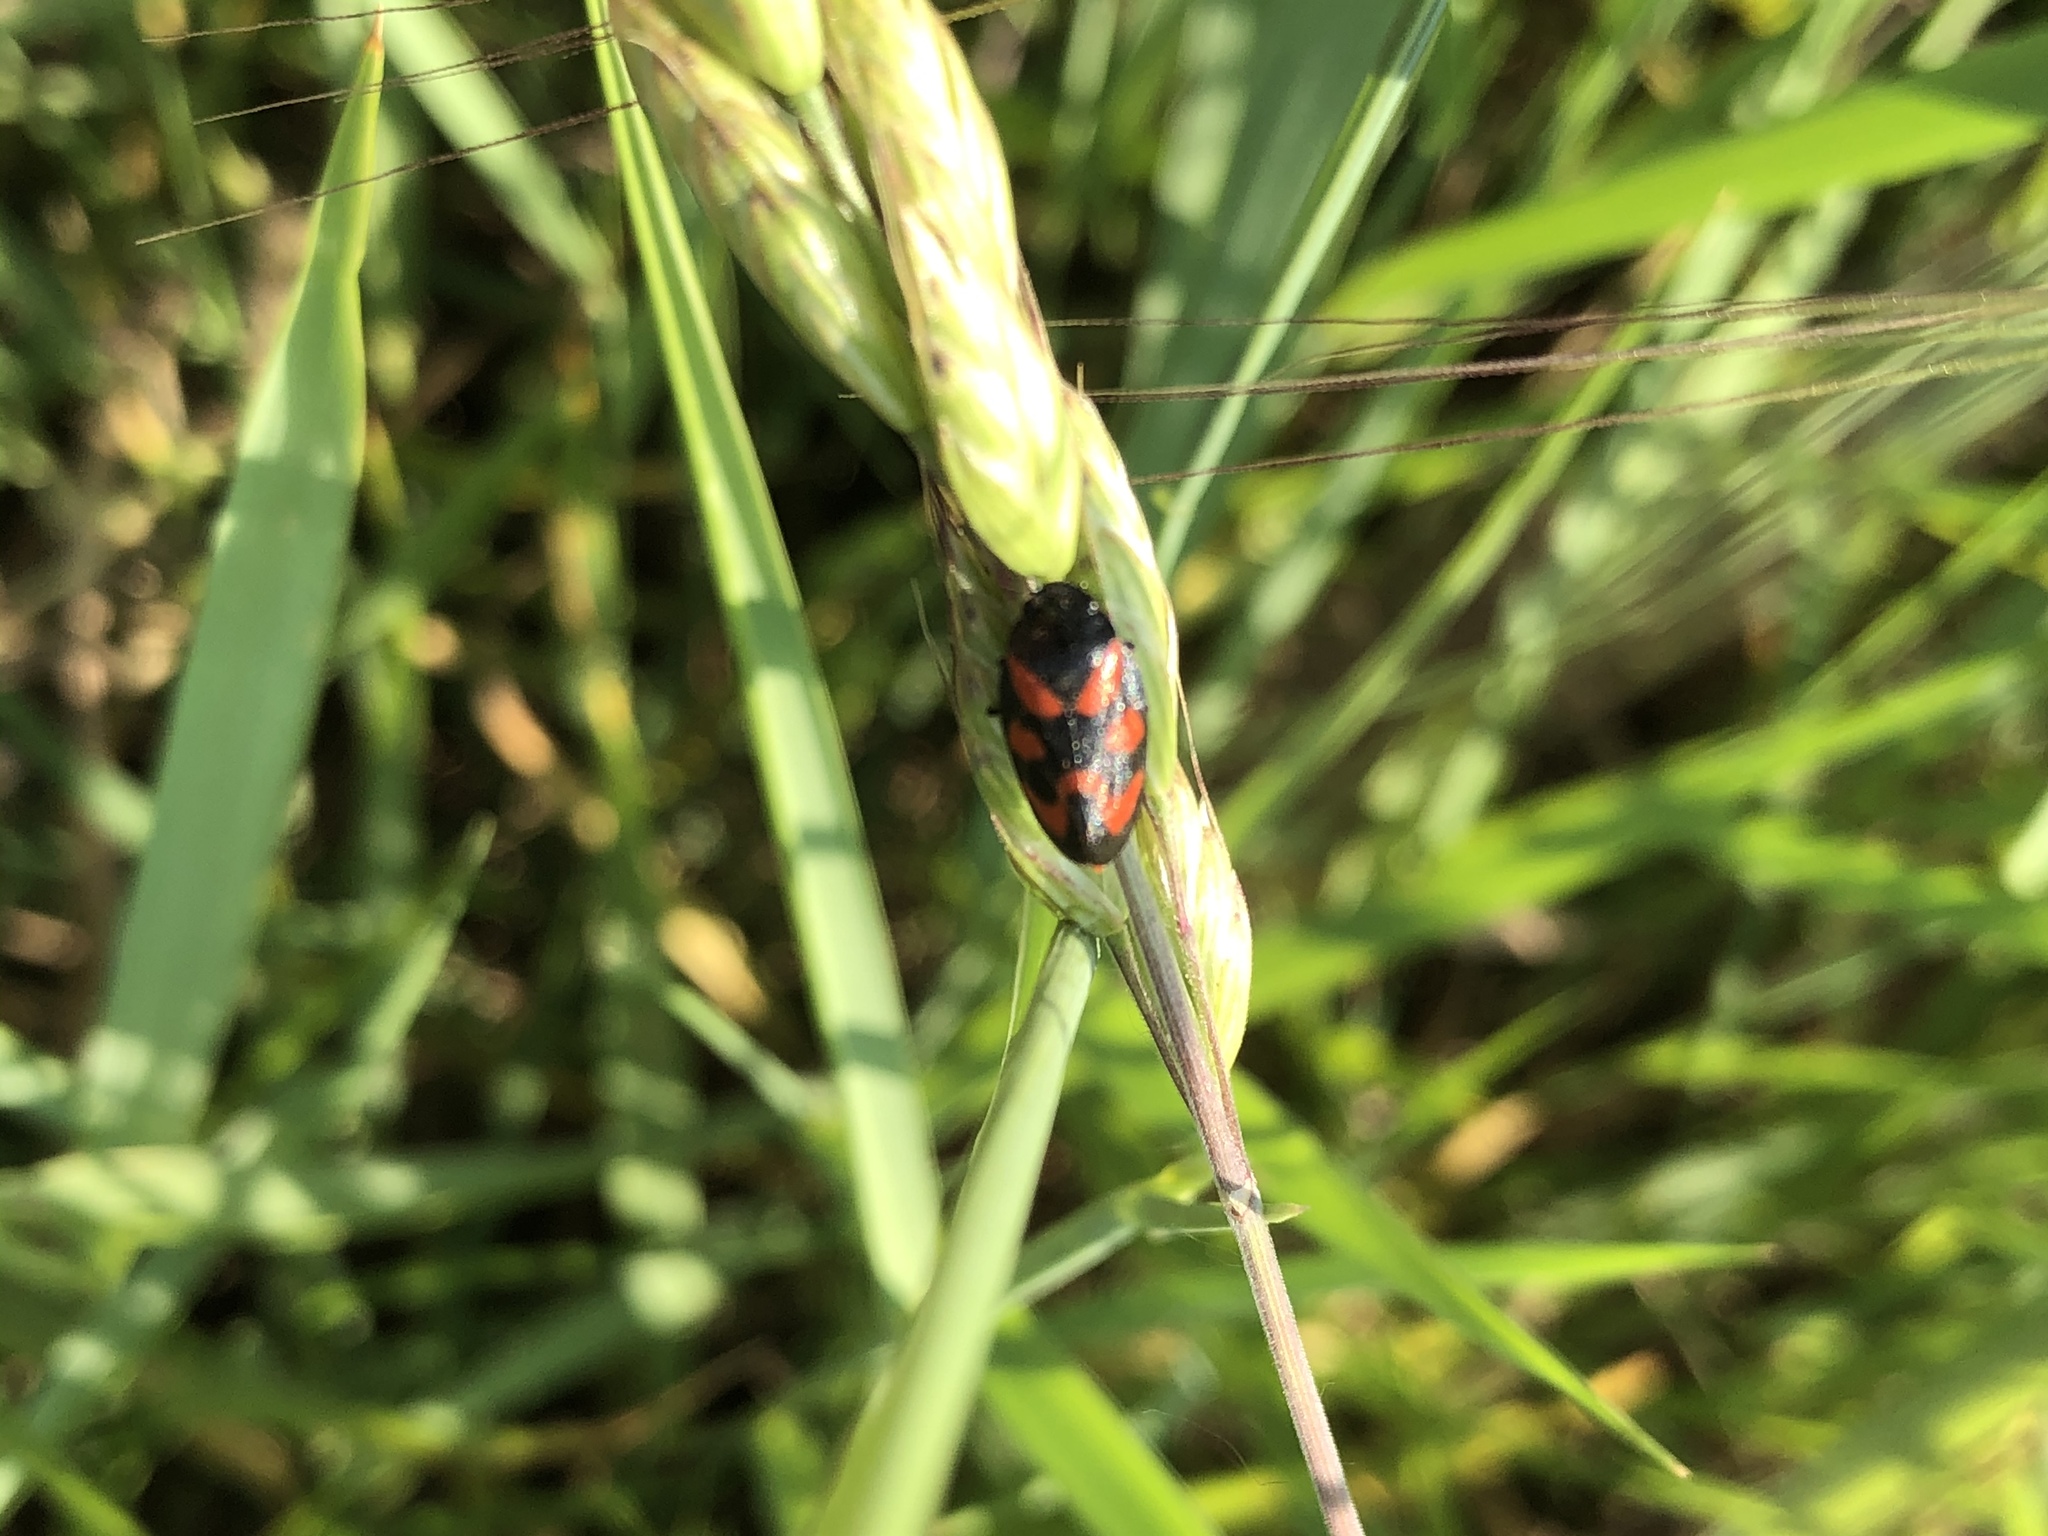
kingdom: Animalia
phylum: Arthropoda
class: Insecta
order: Hemiptera
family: Cercopidae
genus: Cercopis
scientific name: Cercopis vulnerata
